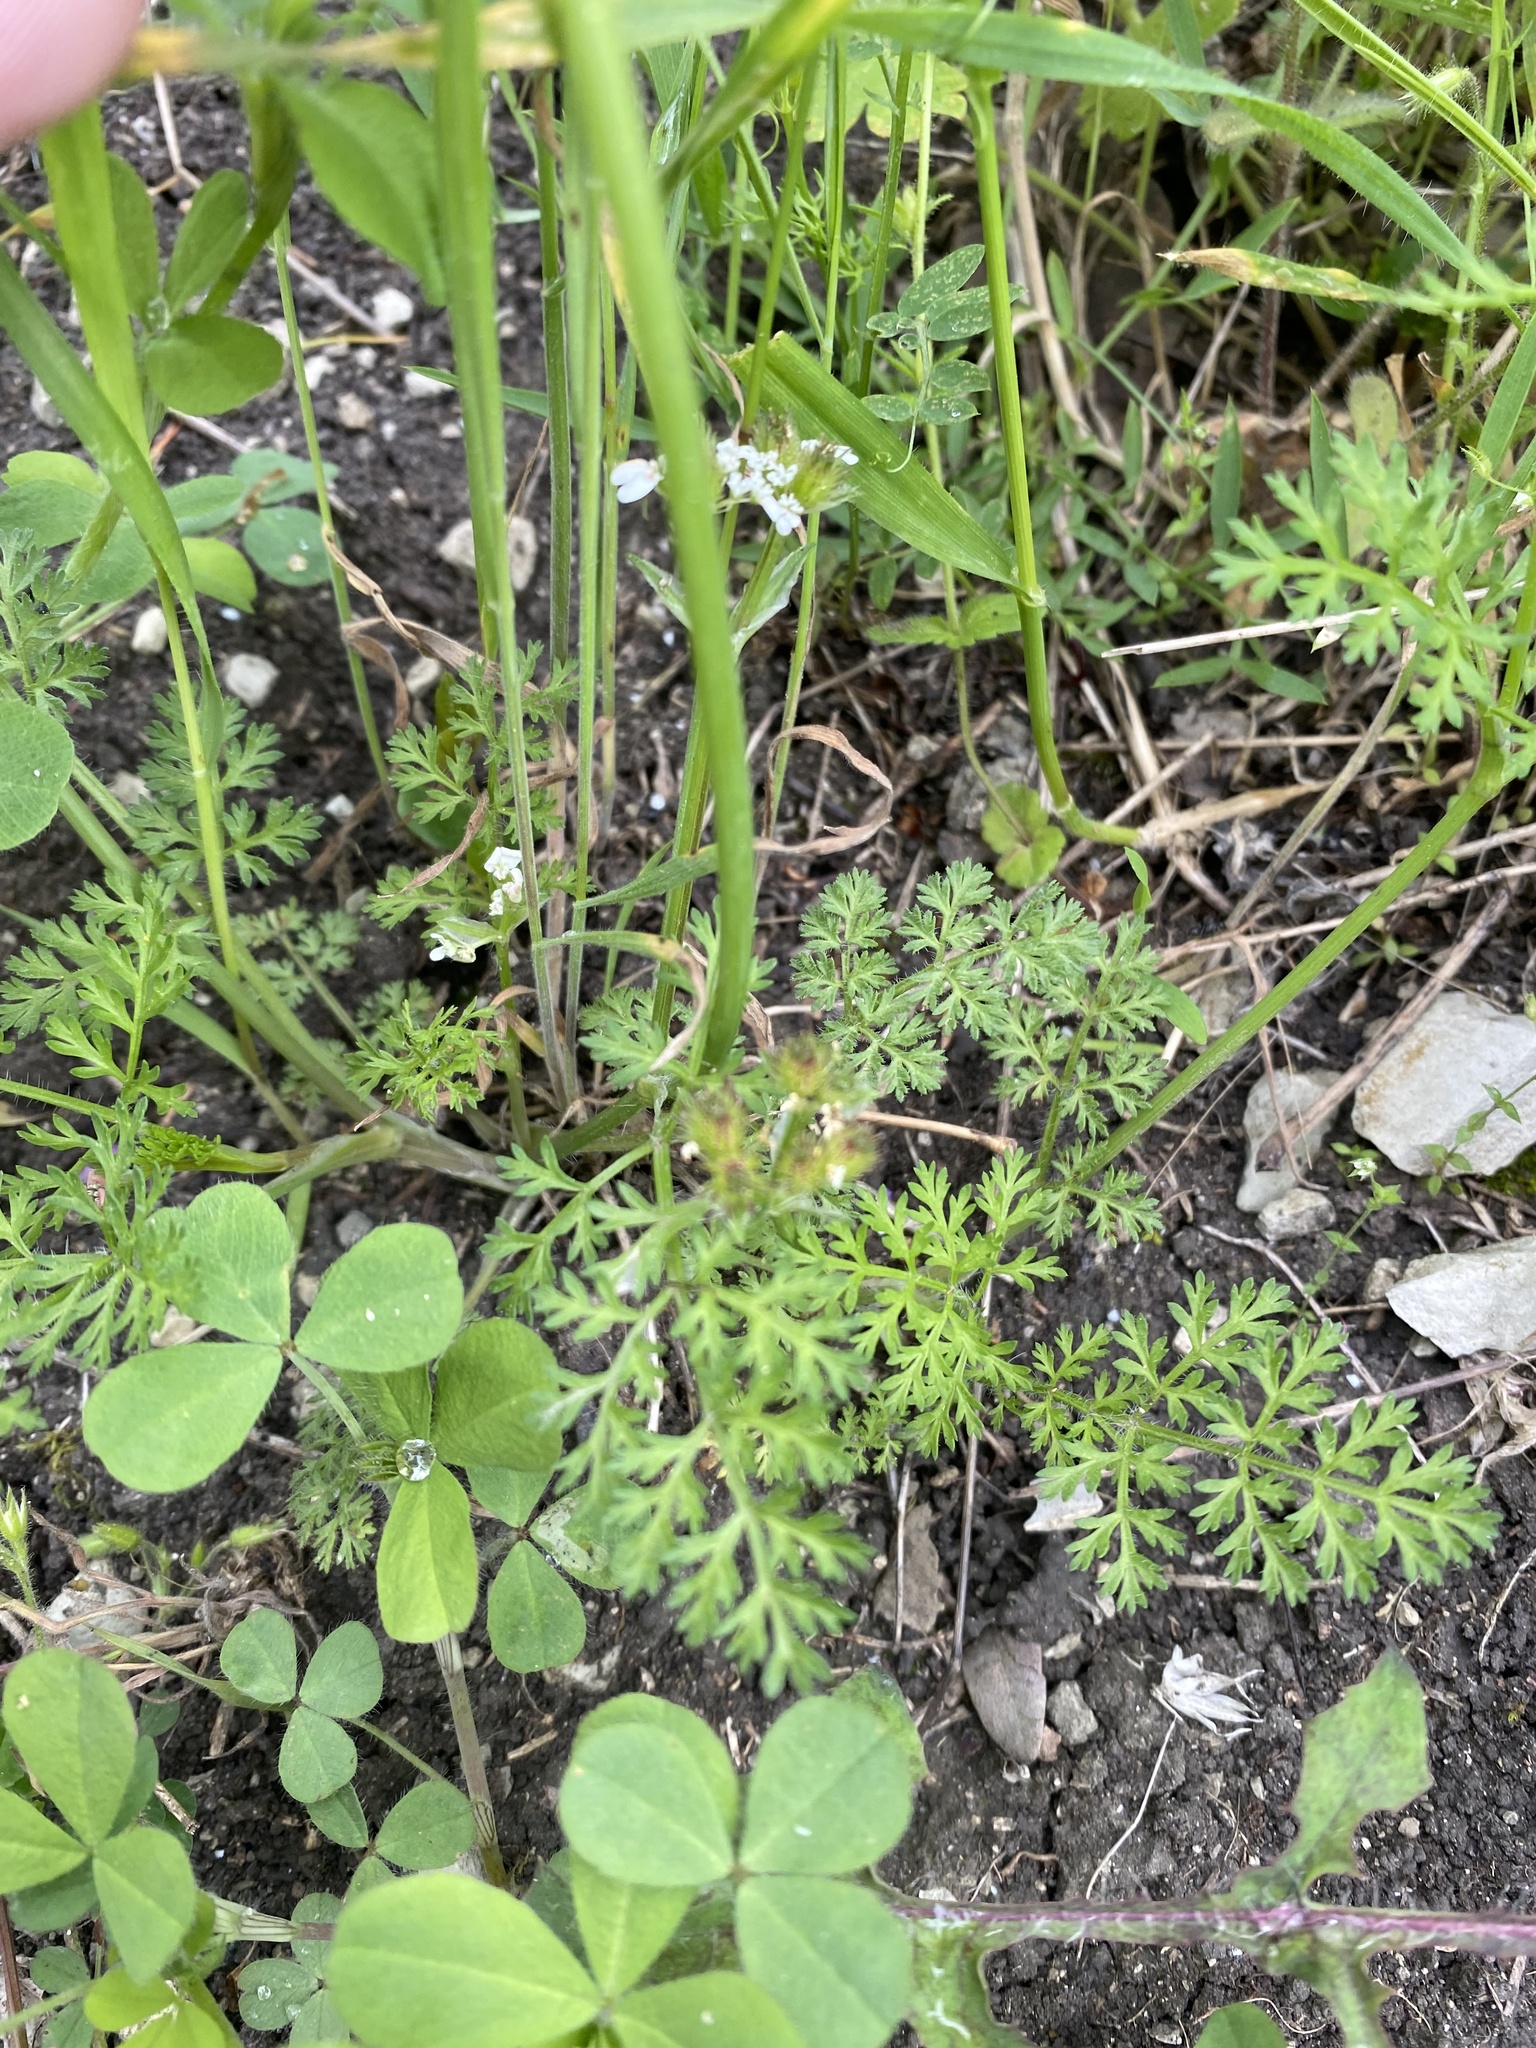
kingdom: Plantae
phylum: Tracheophyta
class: Magnoliopsida
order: Apiales
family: Apiaceae
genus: Orlaya
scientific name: Orlaya daucoides
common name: Flat-fruit orlaya
